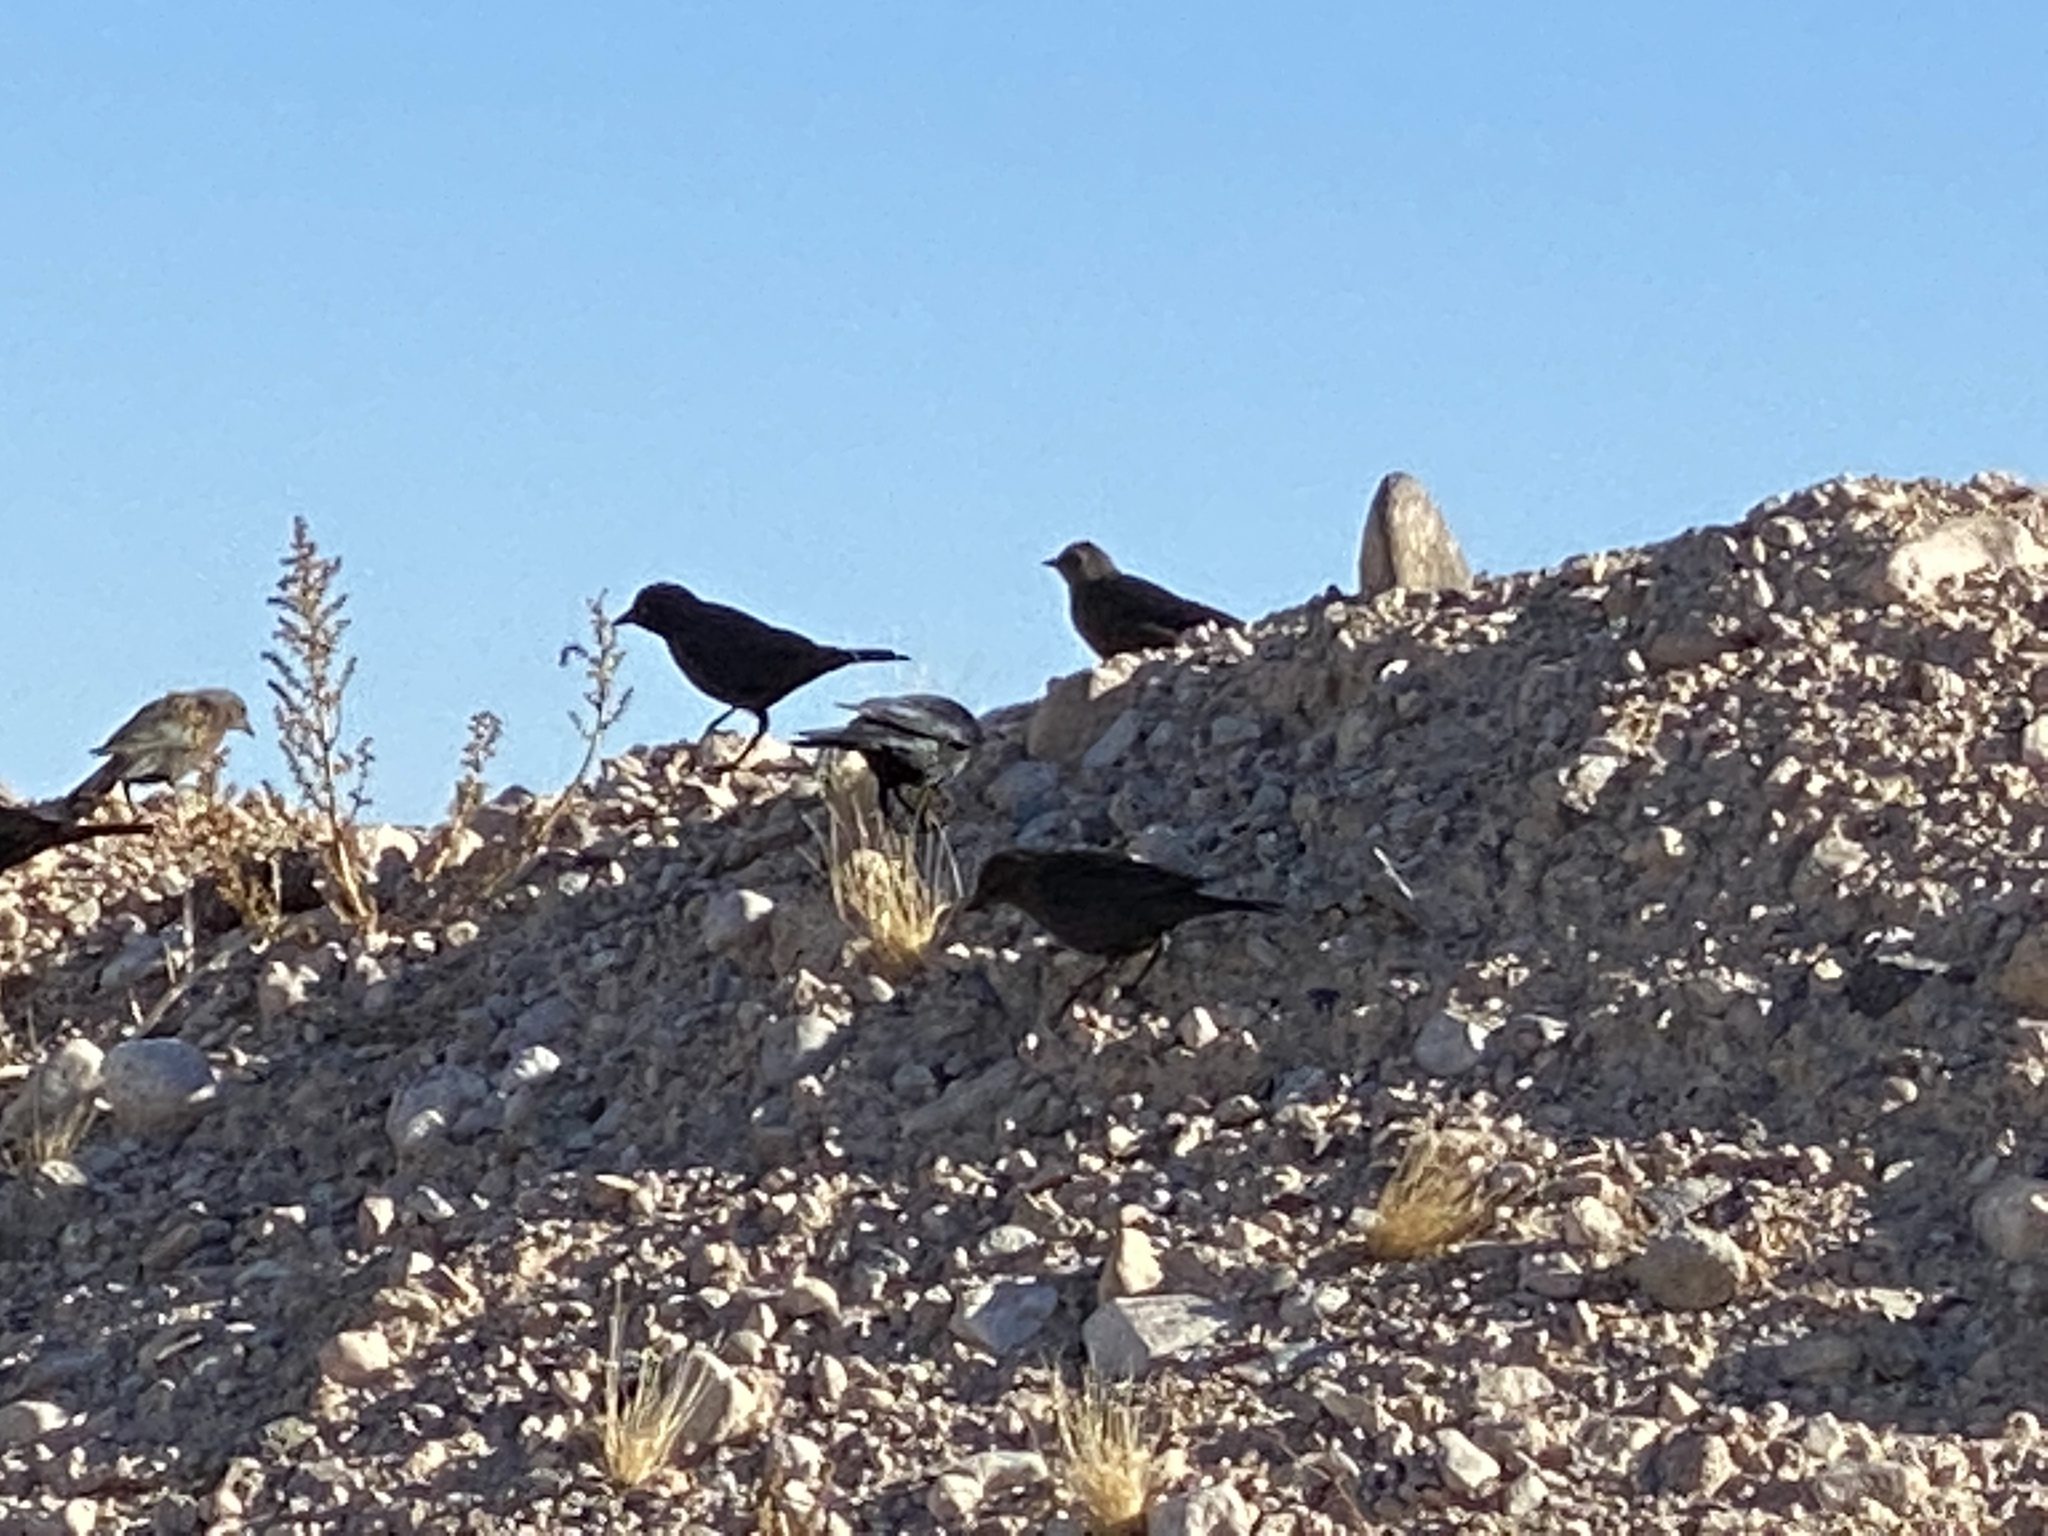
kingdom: Animalia
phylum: Chordata
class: Aves
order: Passeriformes
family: Icteridae
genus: Euphagus
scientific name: Euphagus cyanocephalus
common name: Brewer's blackbird
